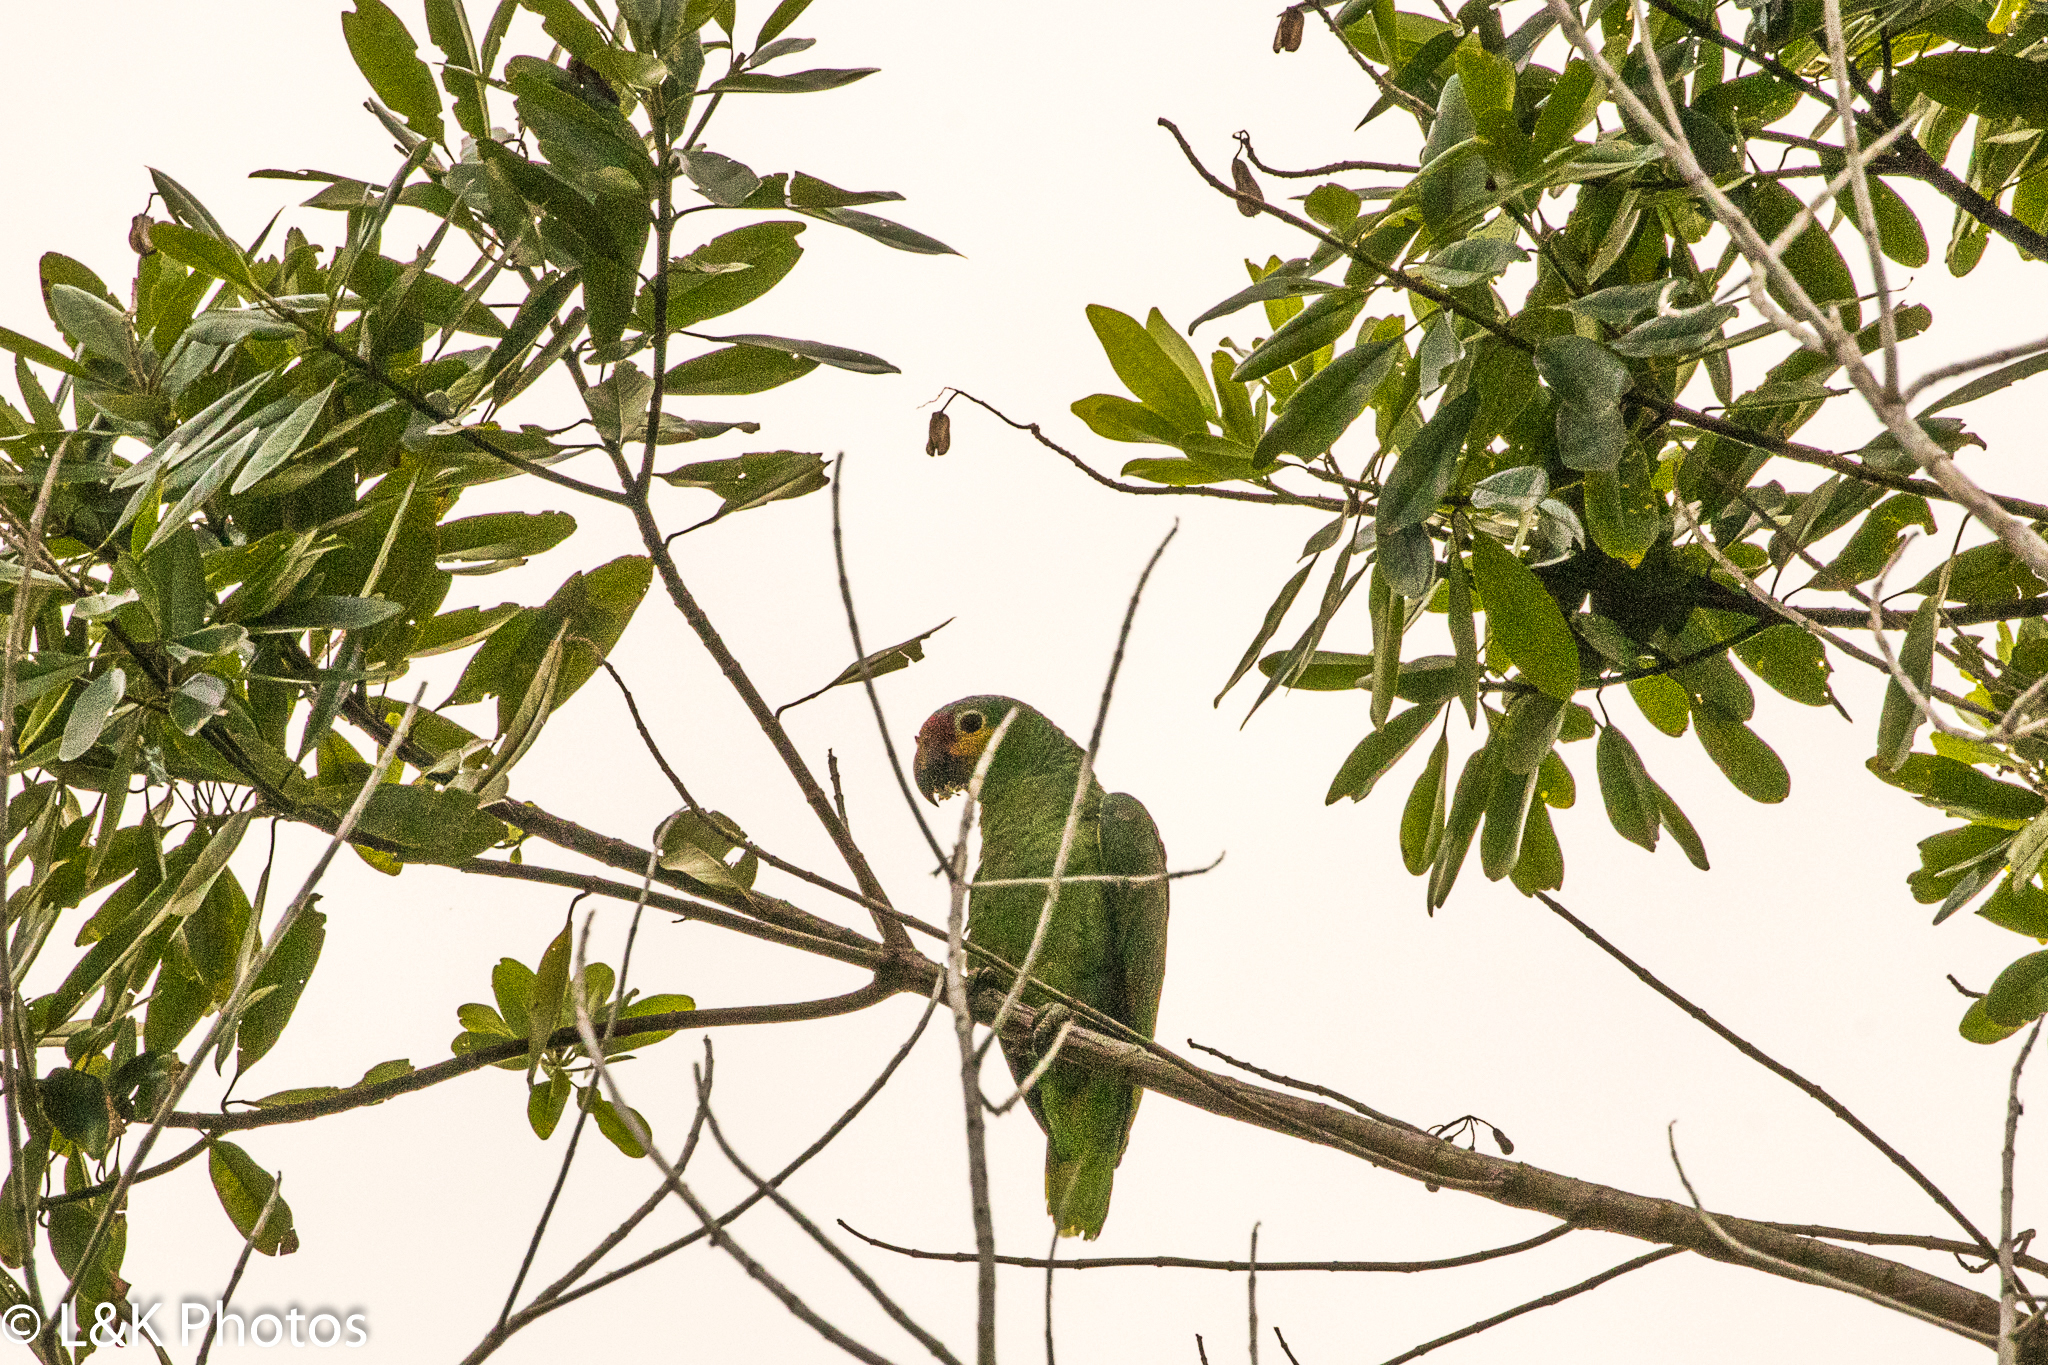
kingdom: Animalia
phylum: Chordata
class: Aves
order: Psittaciformes
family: Psittacidae
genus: Amazona
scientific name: Amazona autumnalis
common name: Red-lored amazon
